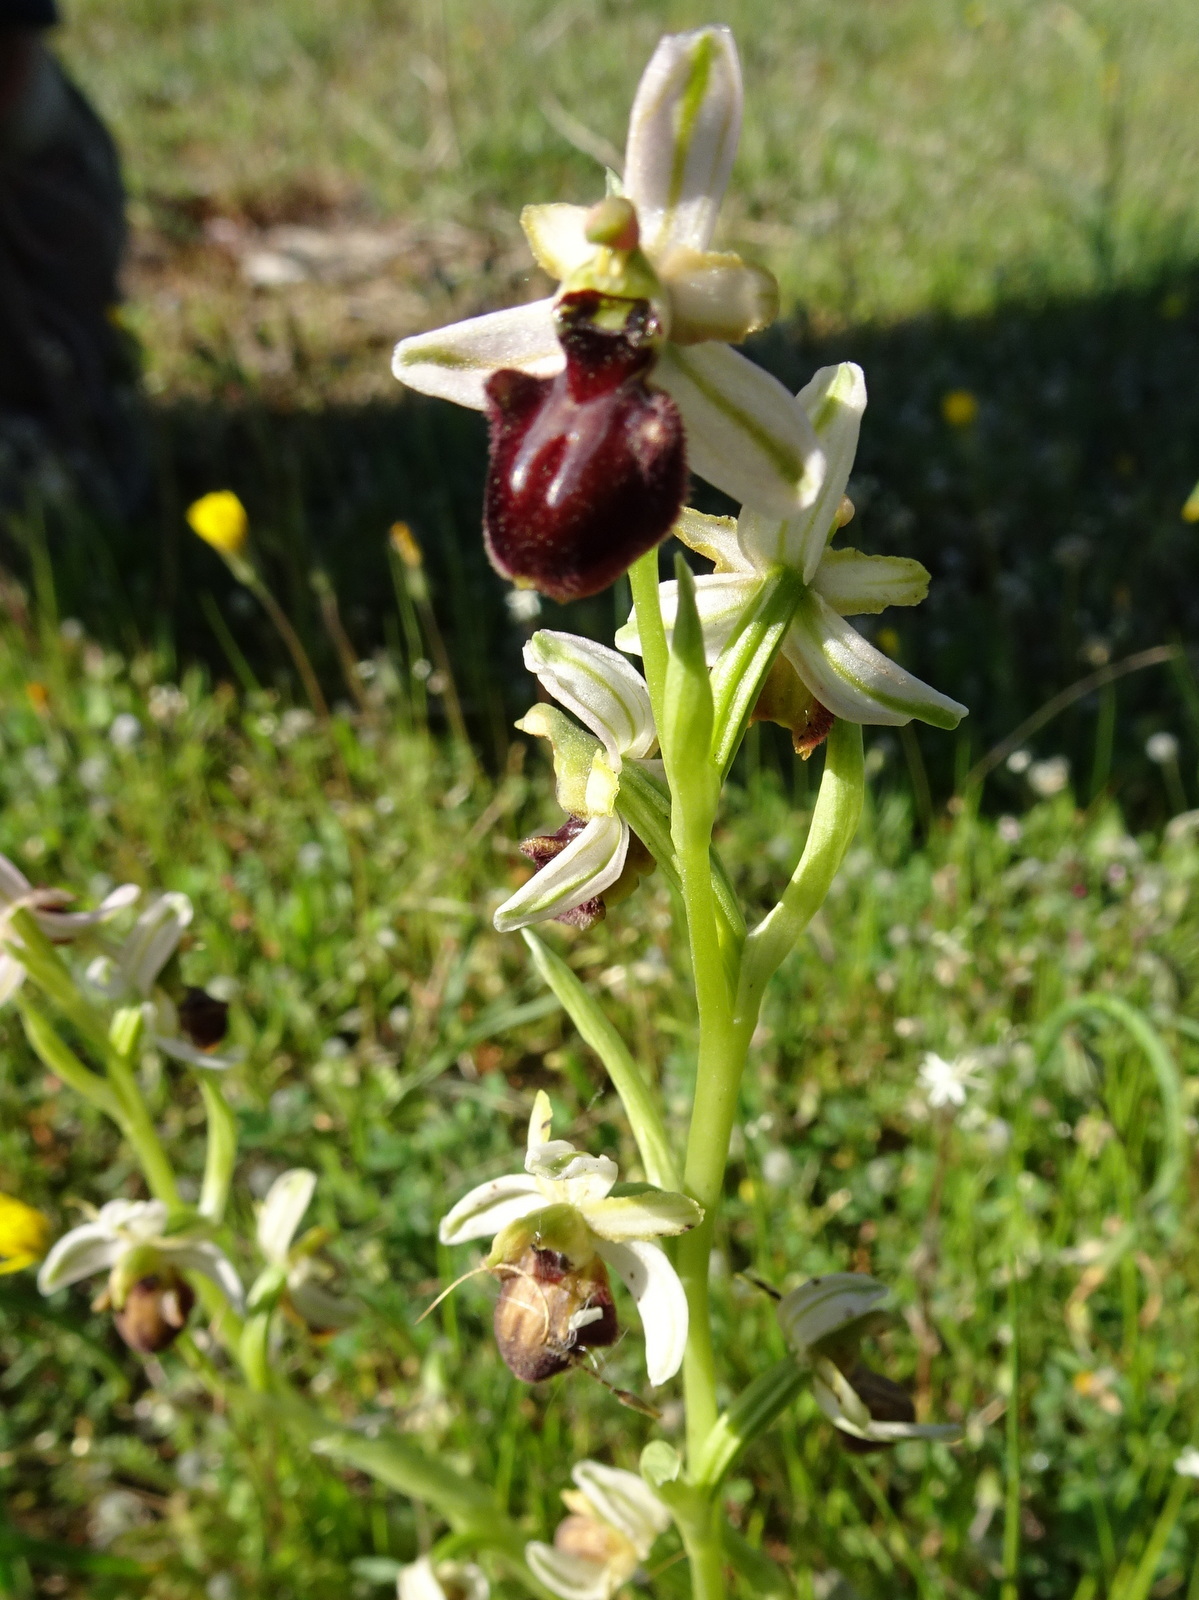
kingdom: Plantae
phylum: Tracheophyta
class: Liliopsida
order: Asparagales
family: Orchidaceae
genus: Ophrys
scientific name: Ophrys sphegodes
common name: Early spider-orchid
